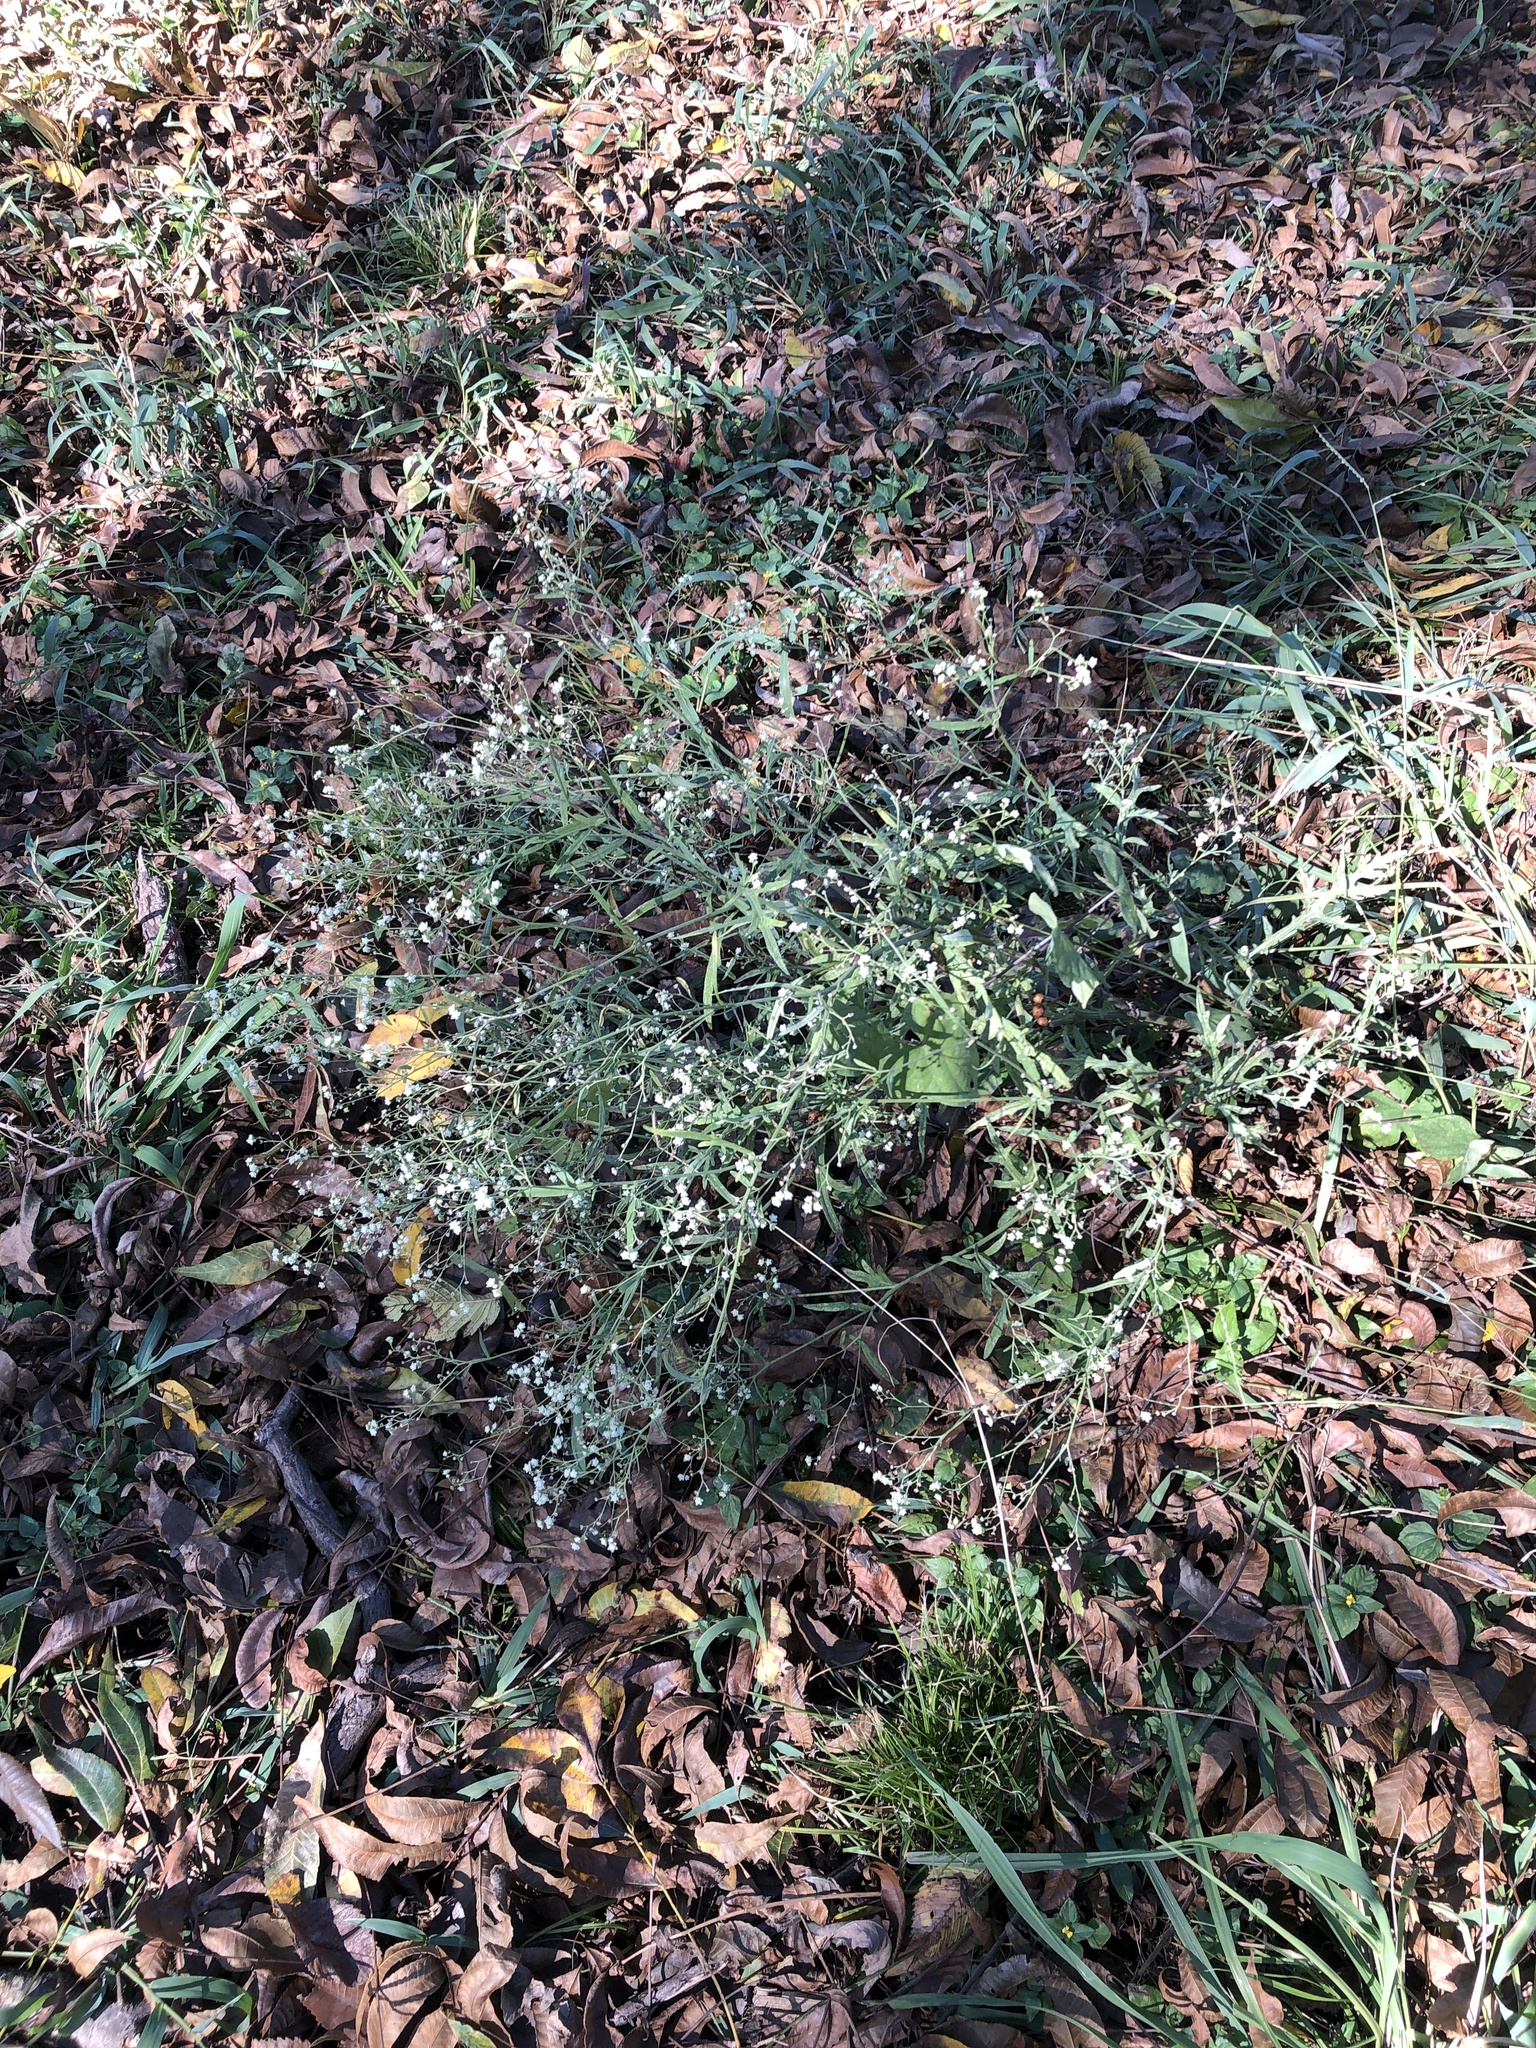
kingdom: Plantae
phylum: Tracheophyta
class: Magnoliopsida
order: Asterales
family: Asteraceae
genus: Parthenium
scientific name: Parthenium hysterophorus
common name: Santa maria feverfew
